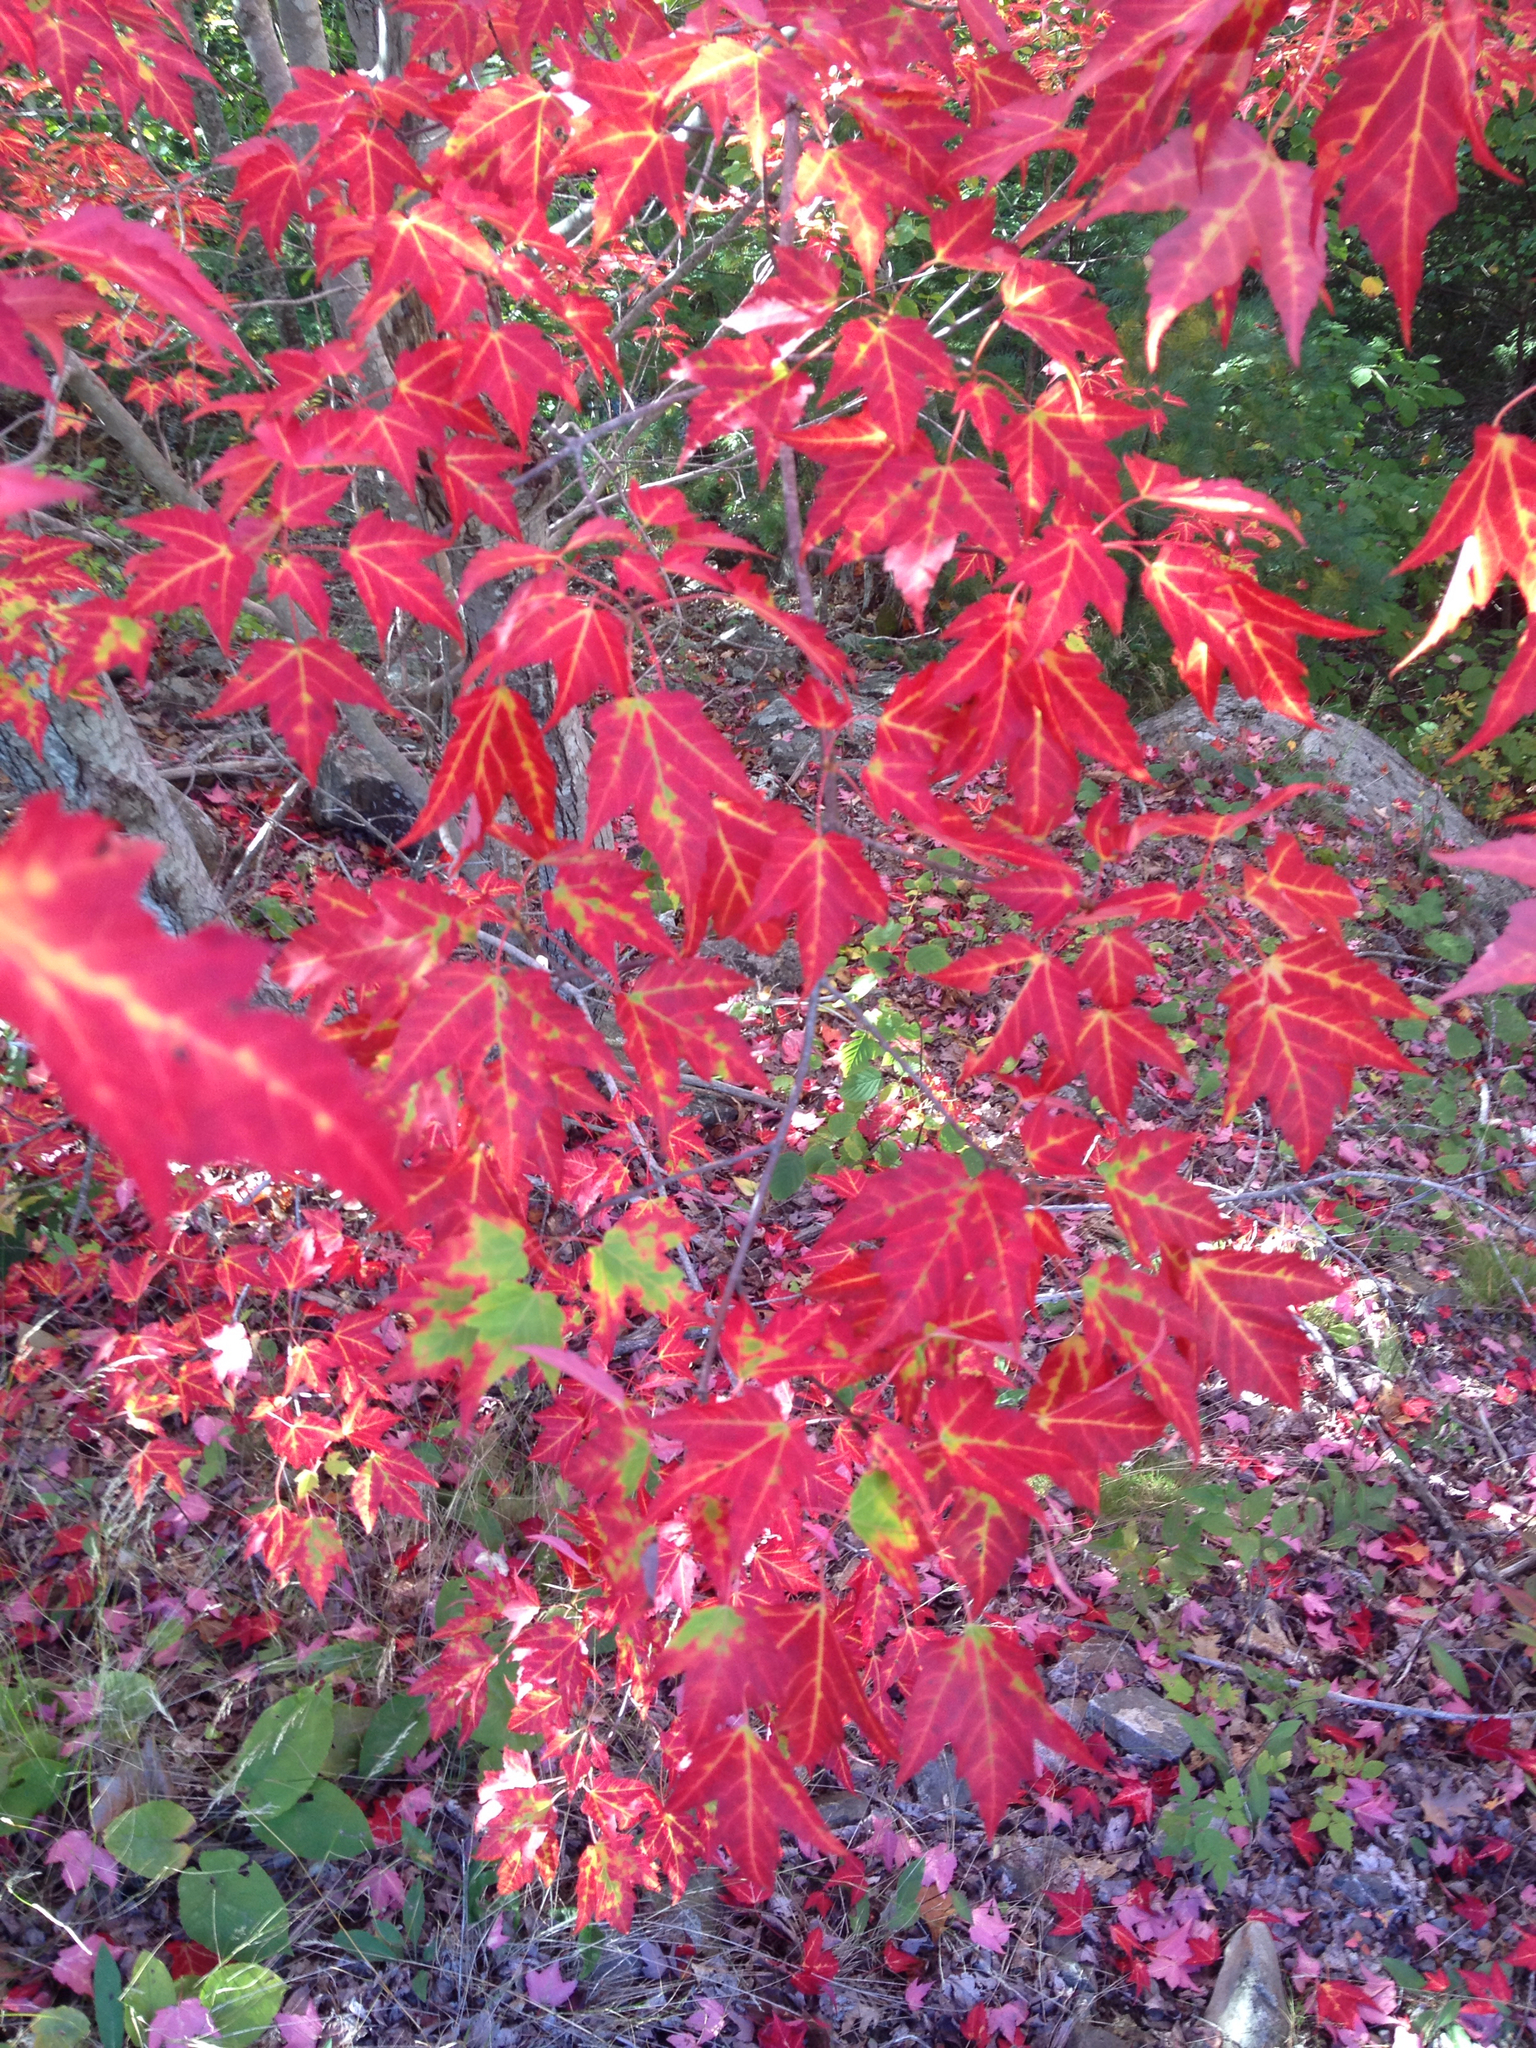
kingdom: Plantae
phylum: Tracheophyta
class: Magnoliopsida
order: Sapindales
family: Sapindaceae
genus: Acer
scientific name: Acer rubrum
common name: Red maple
